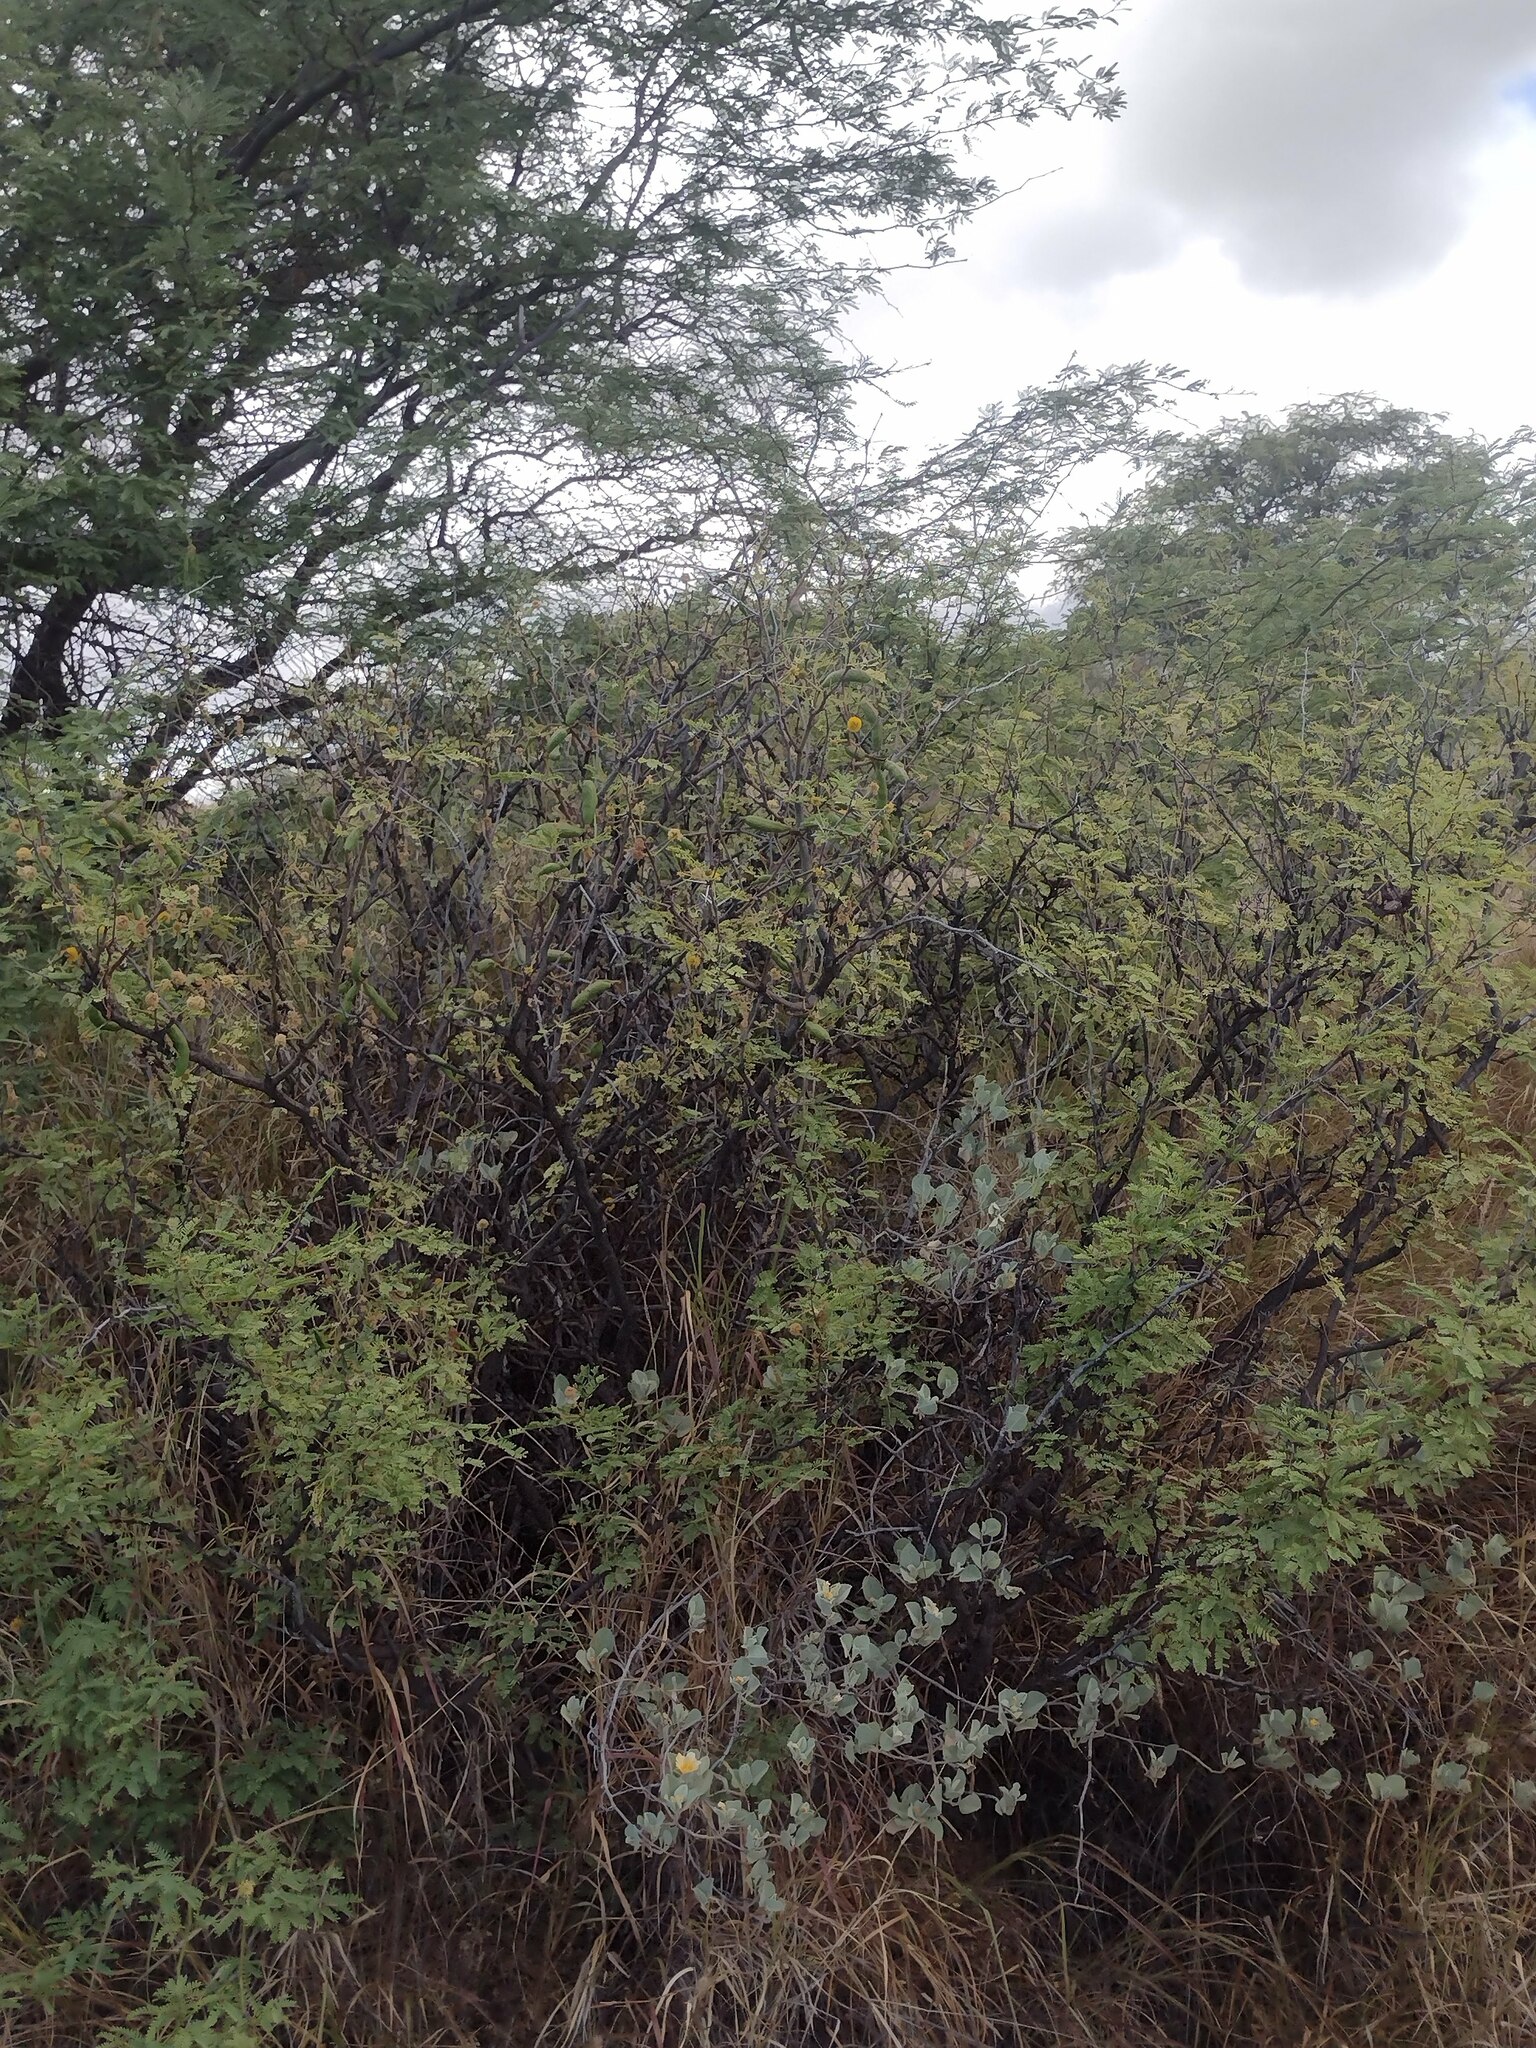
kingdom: Plantae
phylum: Tracheophyta
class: Magnoliopsida
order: Fabales
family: Fabaceae
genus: Prosopis
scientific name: Prosopis pallida
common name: Mesquite
